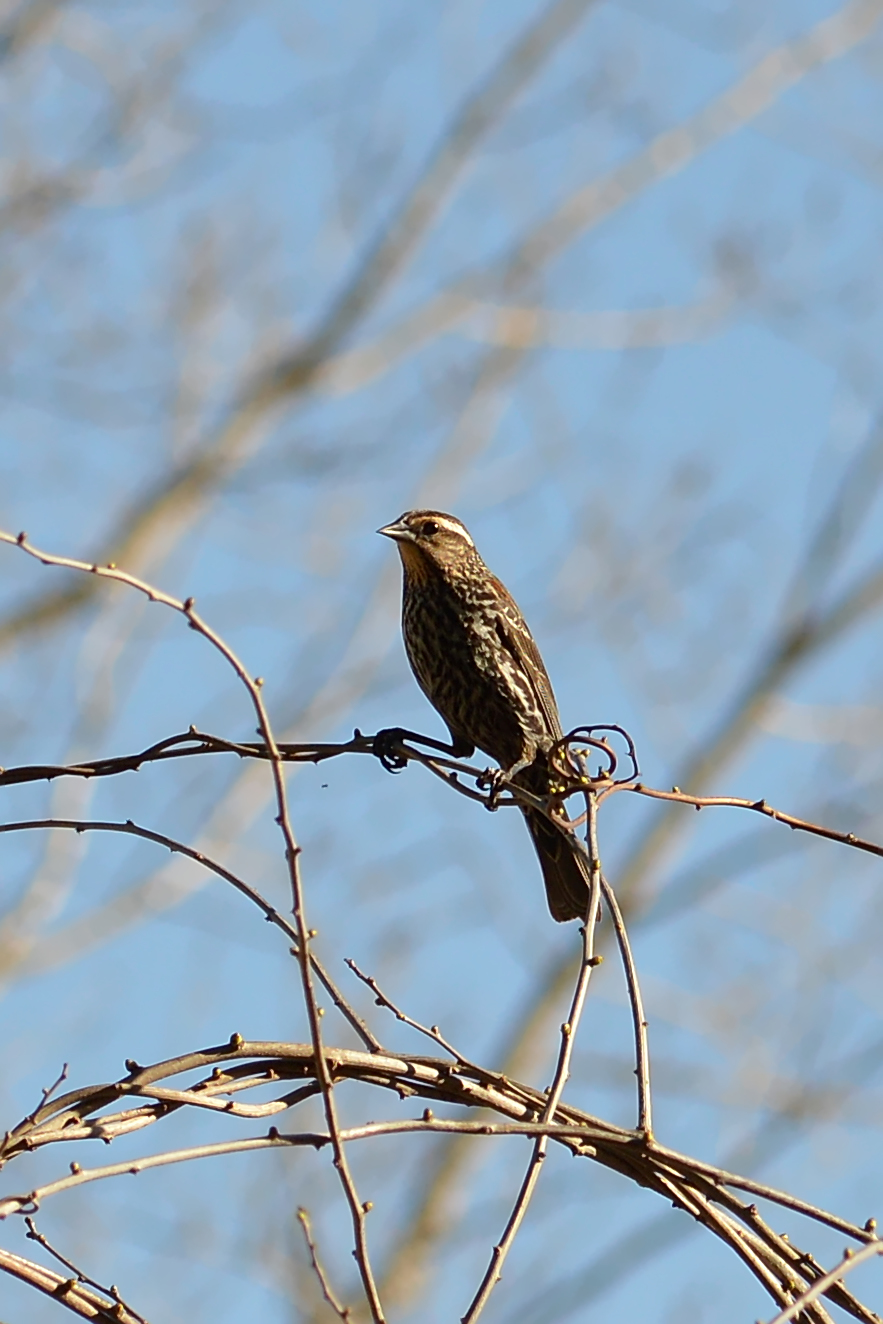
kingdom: Animalia
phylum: Chordata
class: Aves
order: Passeriformes
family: Icteridae
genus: Agelaius
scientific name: Agelaius phoeniceus
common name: Red-winged blackbird
